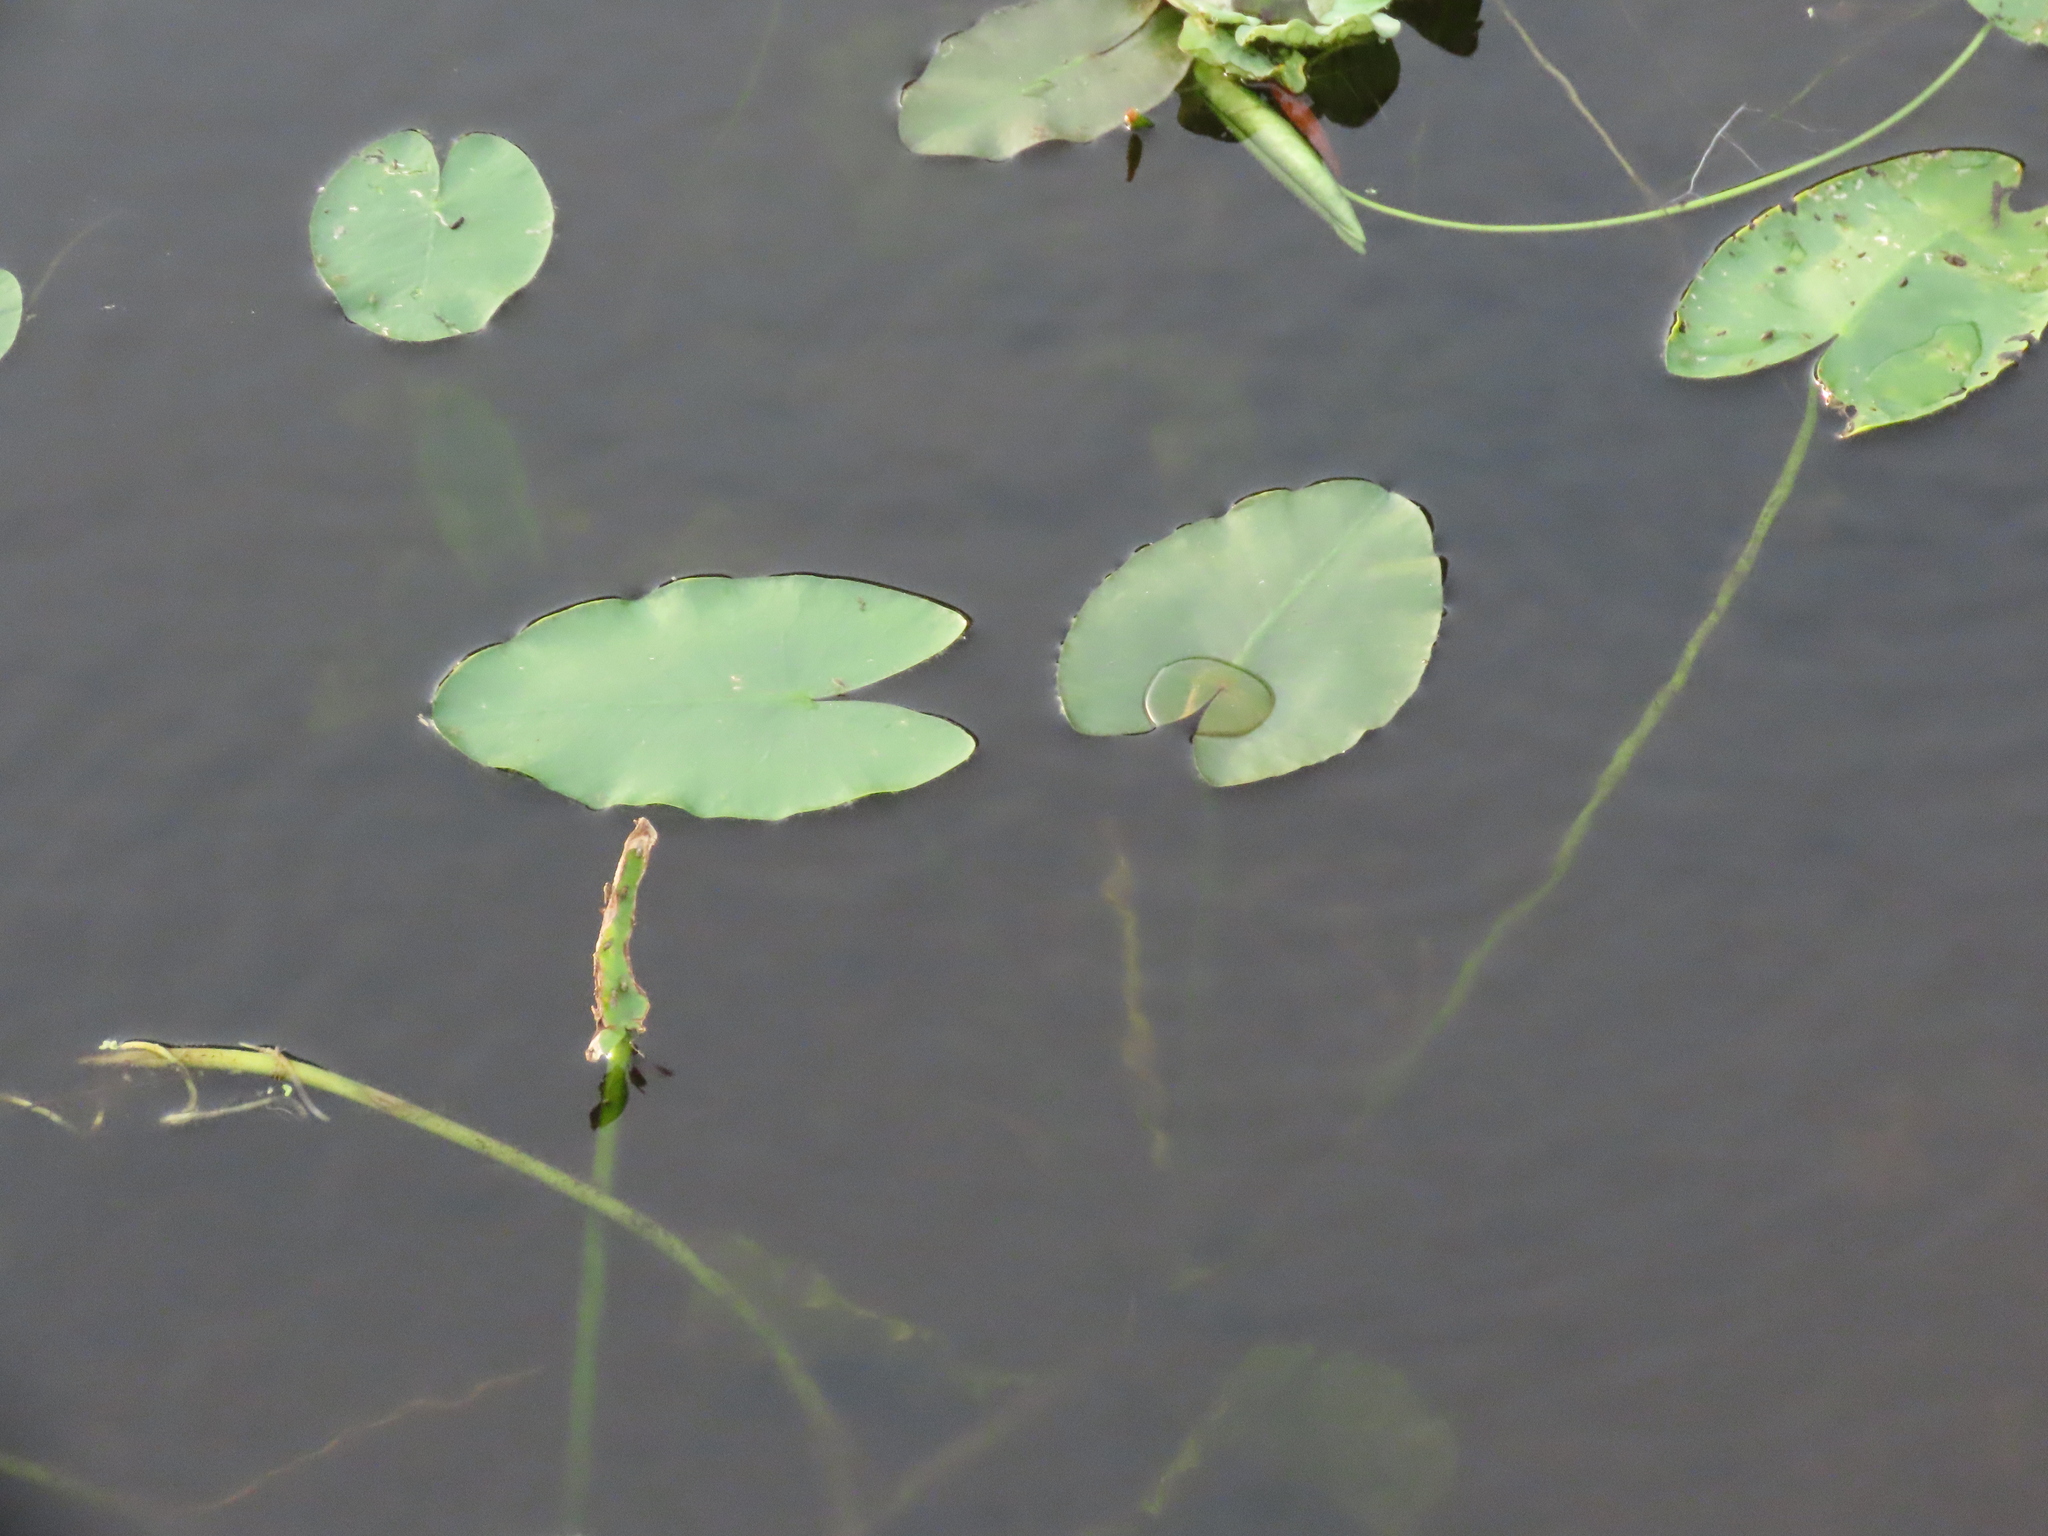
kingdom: Plantae
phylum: Tracheophyta
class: Magnoliopsida
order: Nymphaeales
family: Nymphaeaceae
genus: Nuphar
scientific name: Nuphar advena
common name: Spatter-dock
